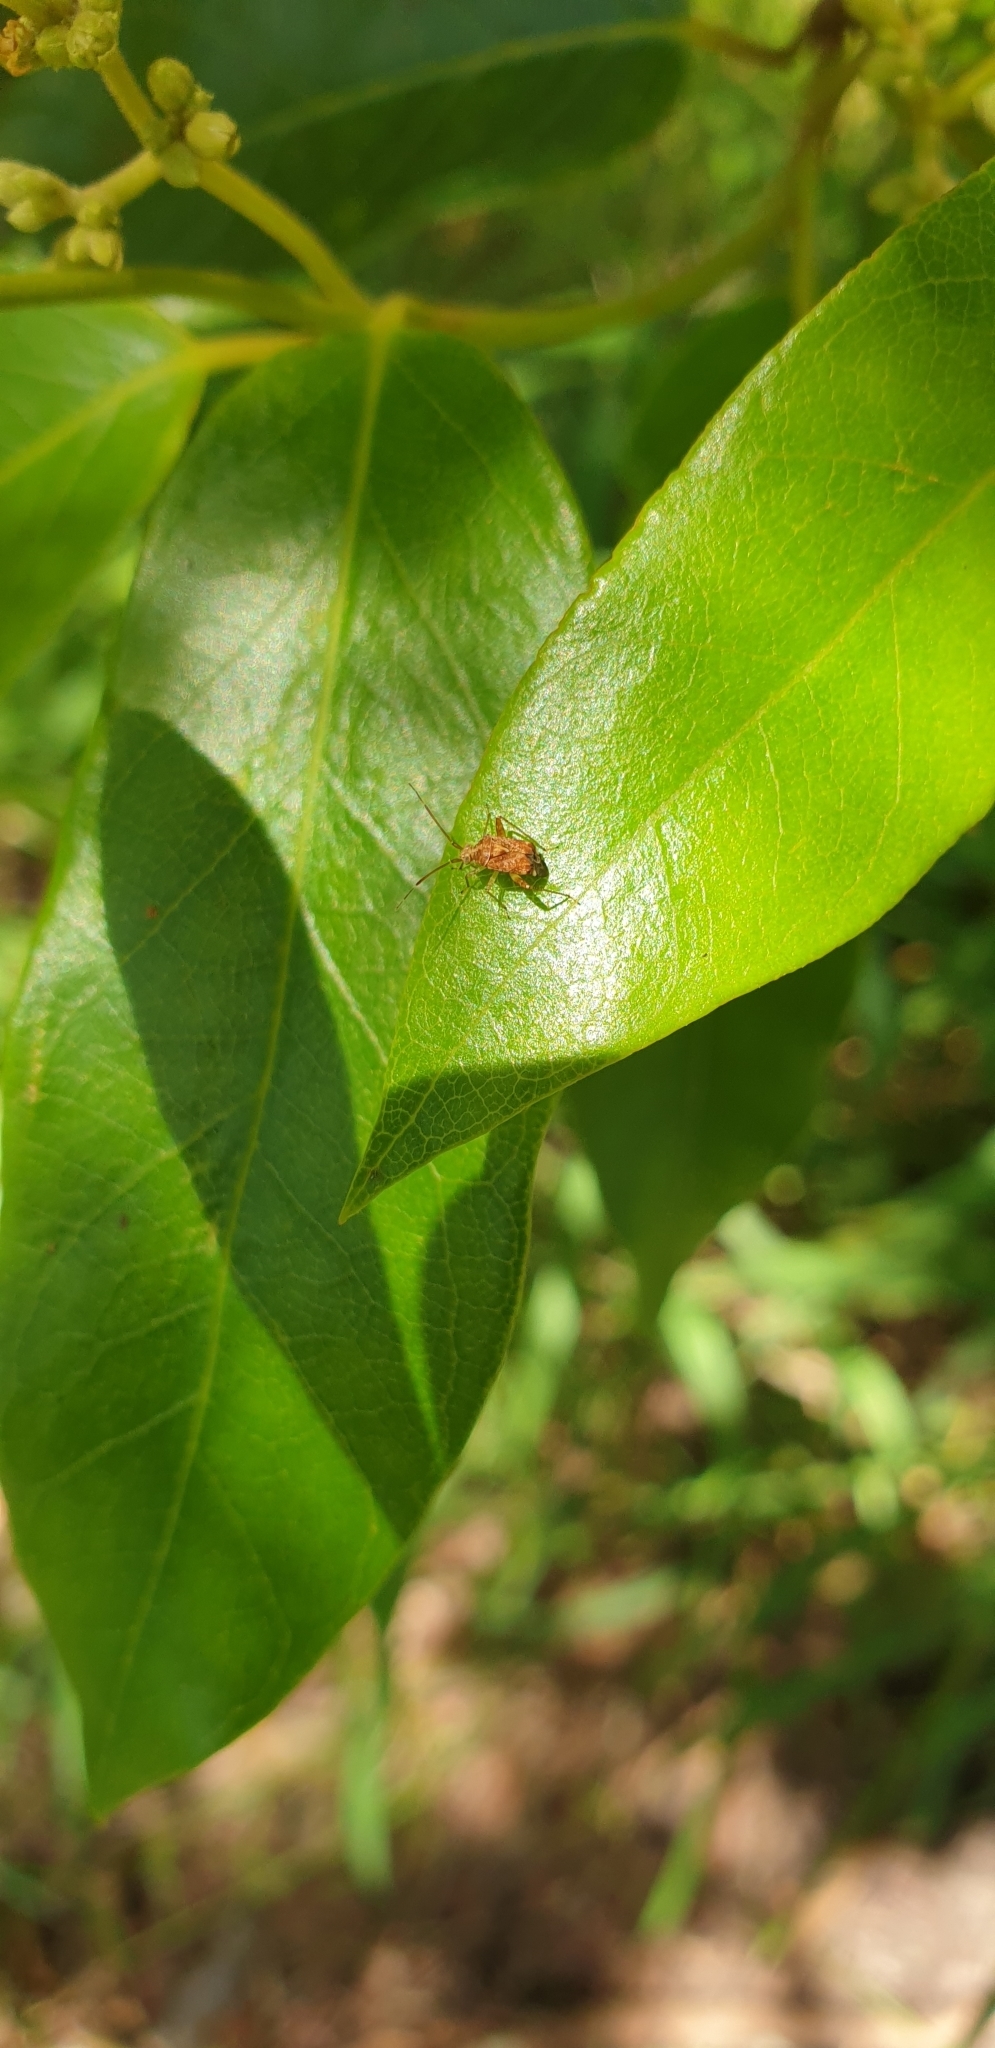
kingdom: Animalia
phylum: Arthropoda
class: Insecta
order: Hemiptera
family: Miridae
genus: Sidnia
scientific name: Sidnia kinbergi
